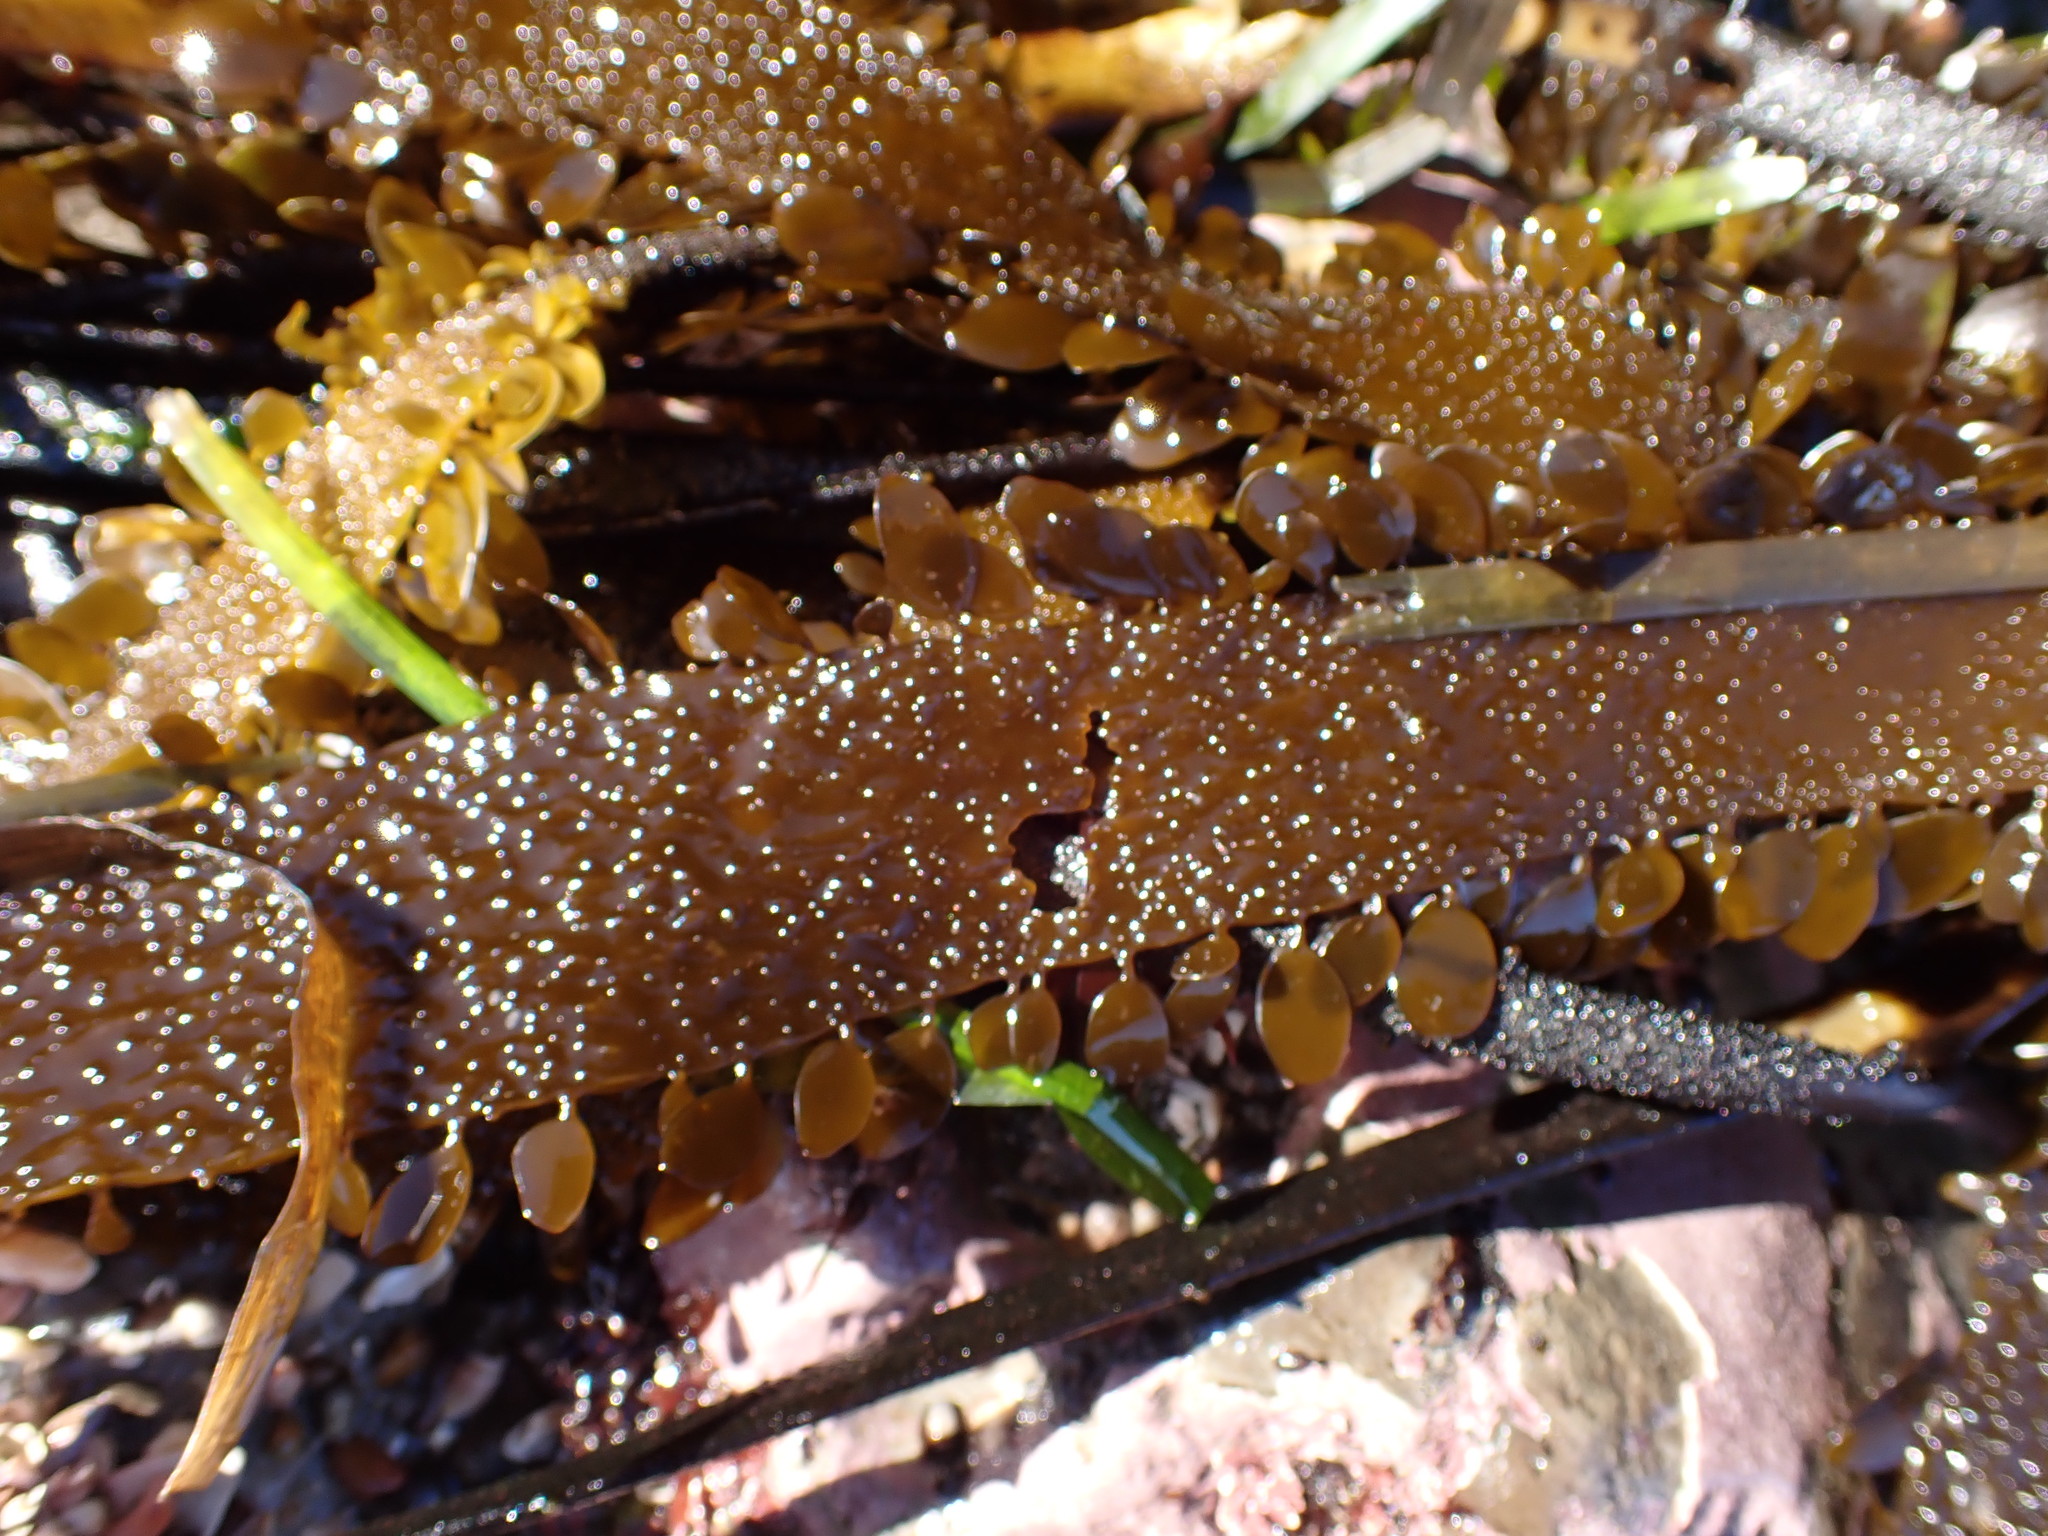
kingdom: Chromista
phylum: Ochrophyta
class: Phaeophyceae
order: Laminariales
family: Lessoniaceae
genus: Egregia
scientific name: Egregia menziesii
